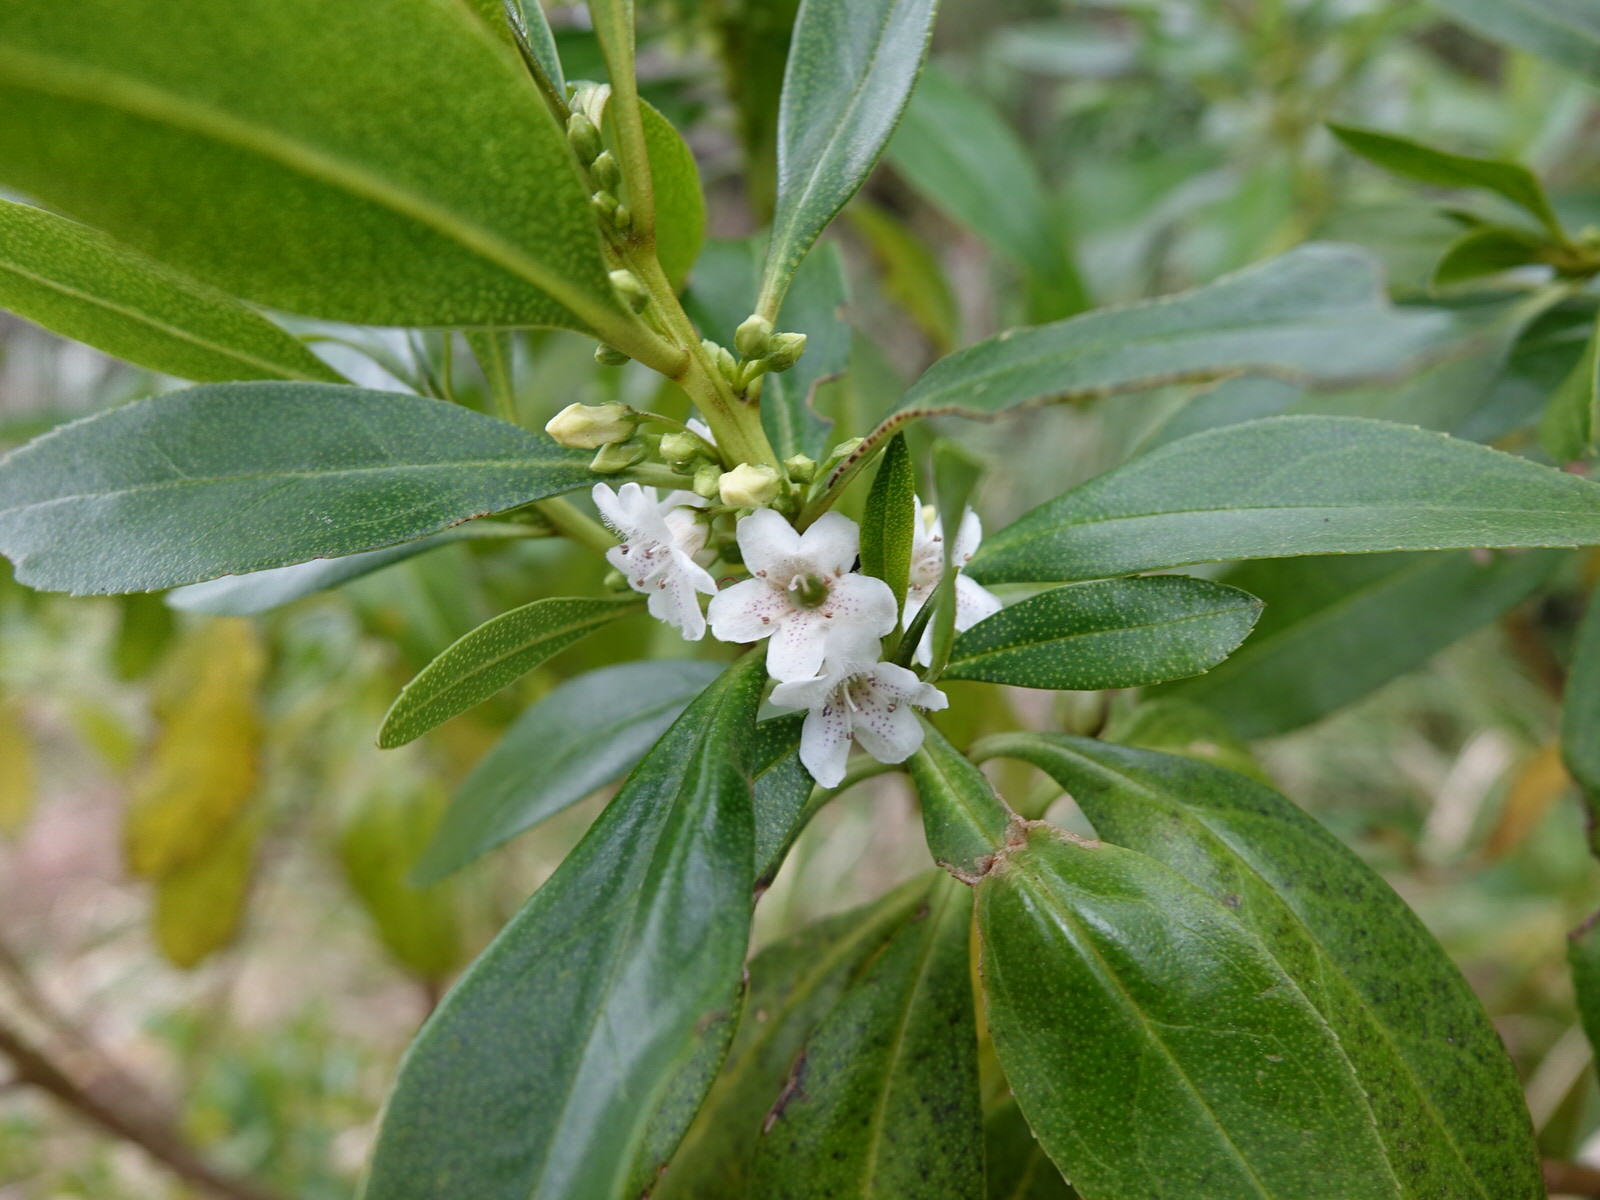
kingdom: Plantae
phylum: Tracheophyta
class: Magnoliopsida
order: Lamiales
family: Scrophulariaceae
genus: Myoporum
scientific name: Myoporum
